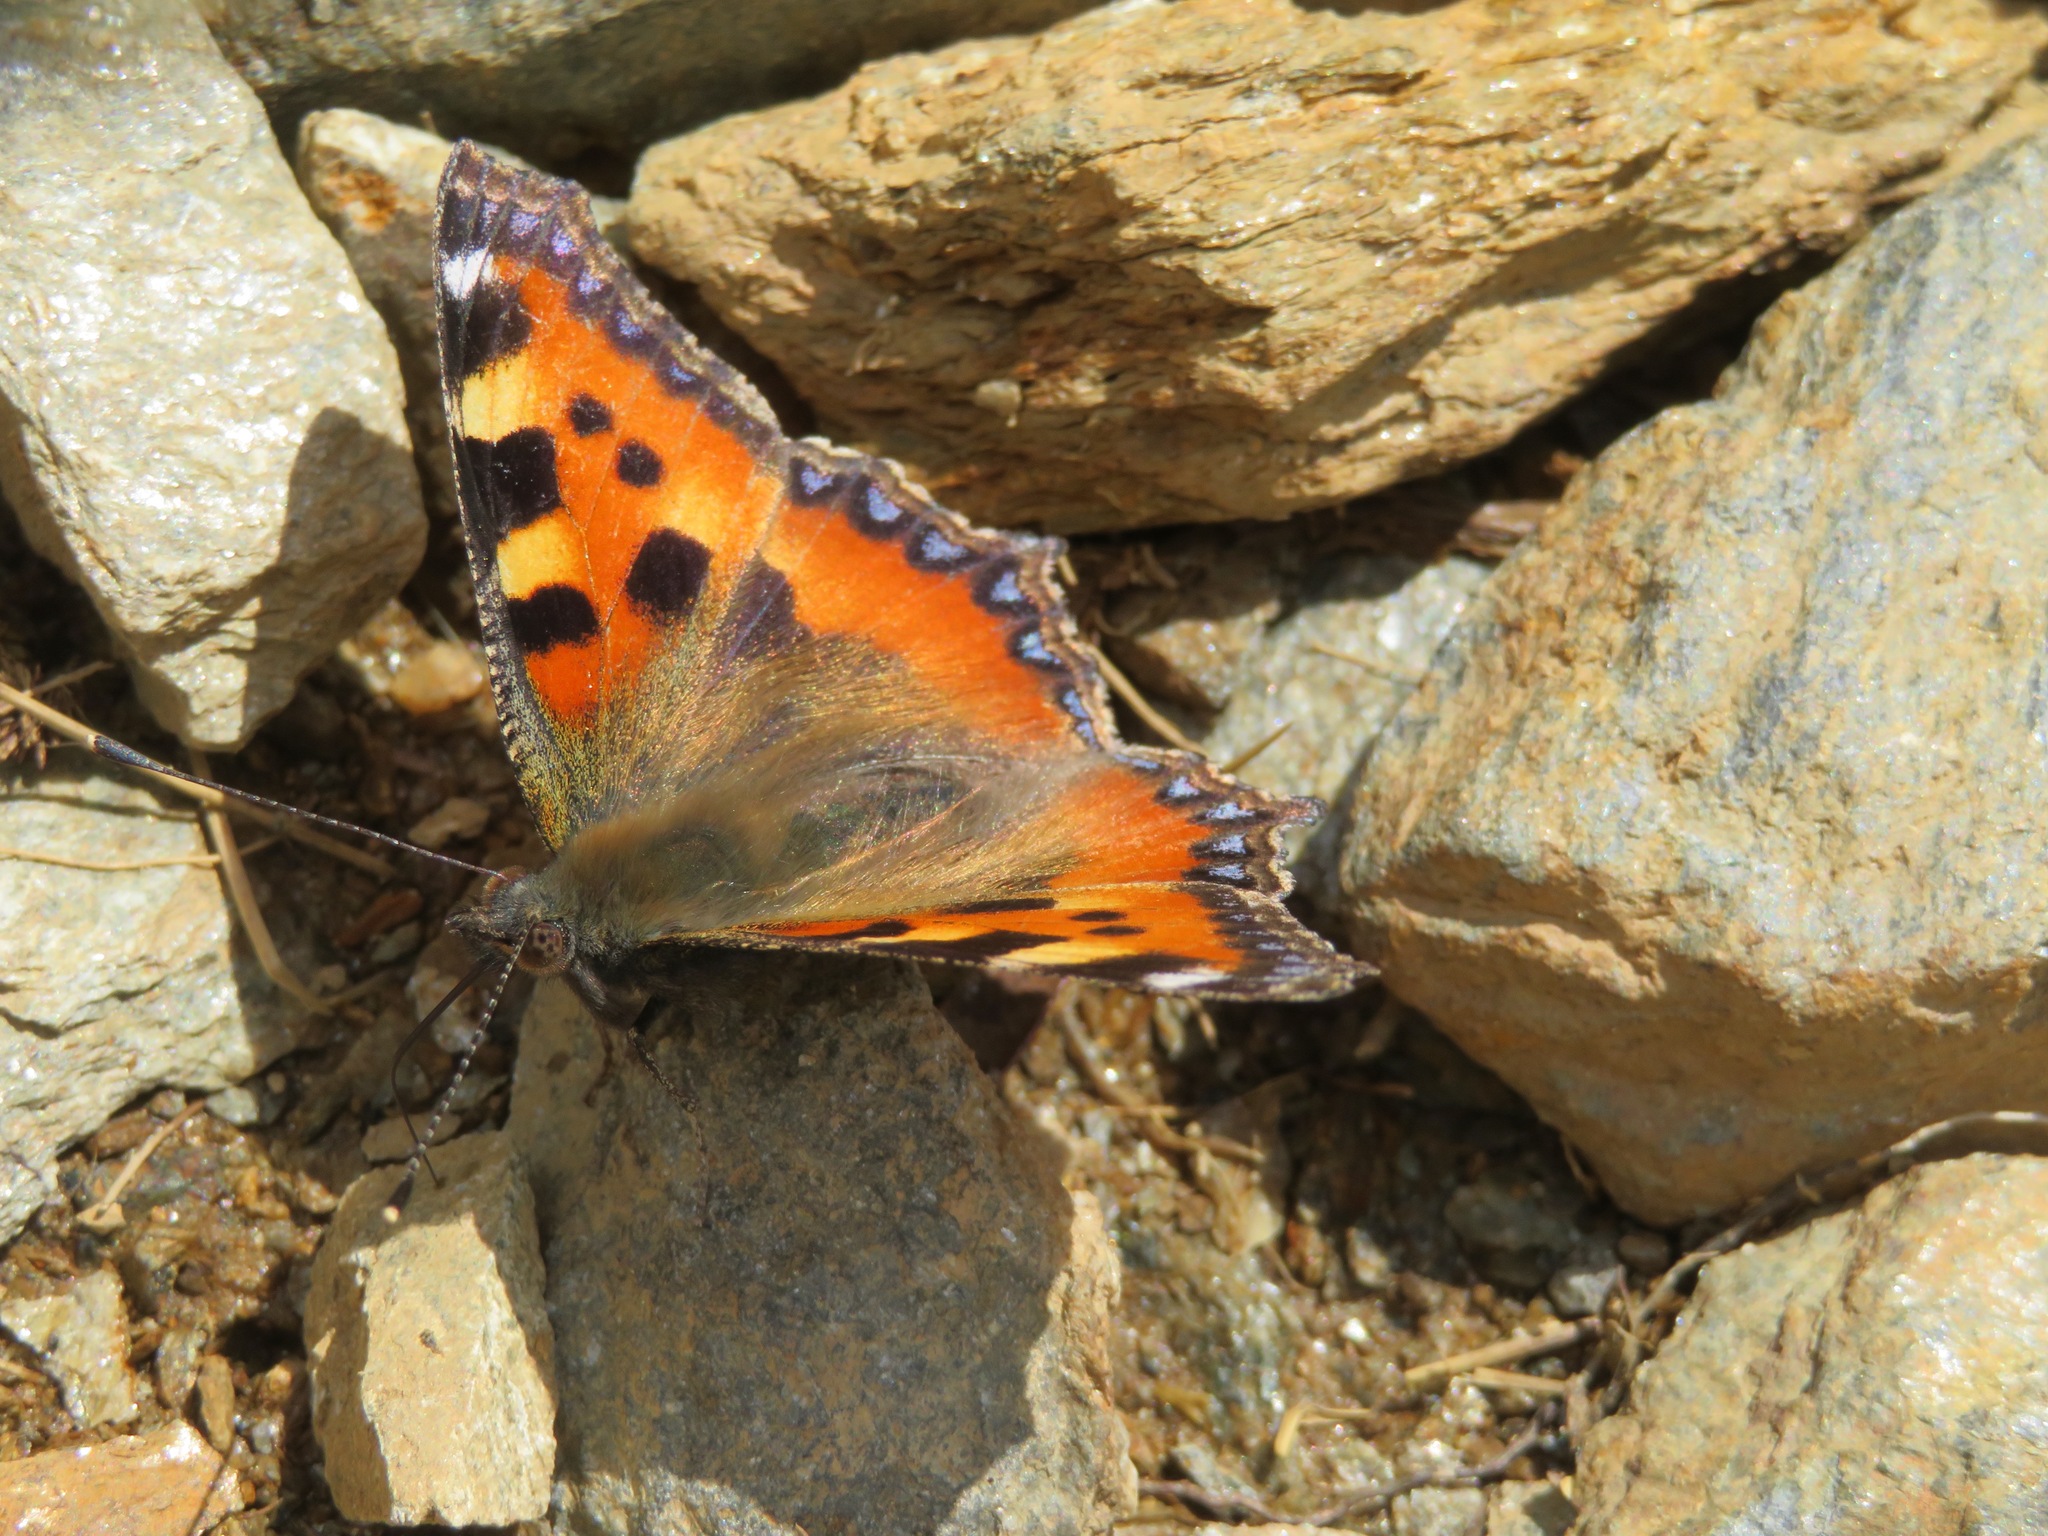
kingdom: Animalia
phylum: Arthropoda
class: Insecta
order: Lepidoptera
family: Nymphalidae
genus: Aglais
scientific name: Aglais urticae
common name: Small tortoiseshell
